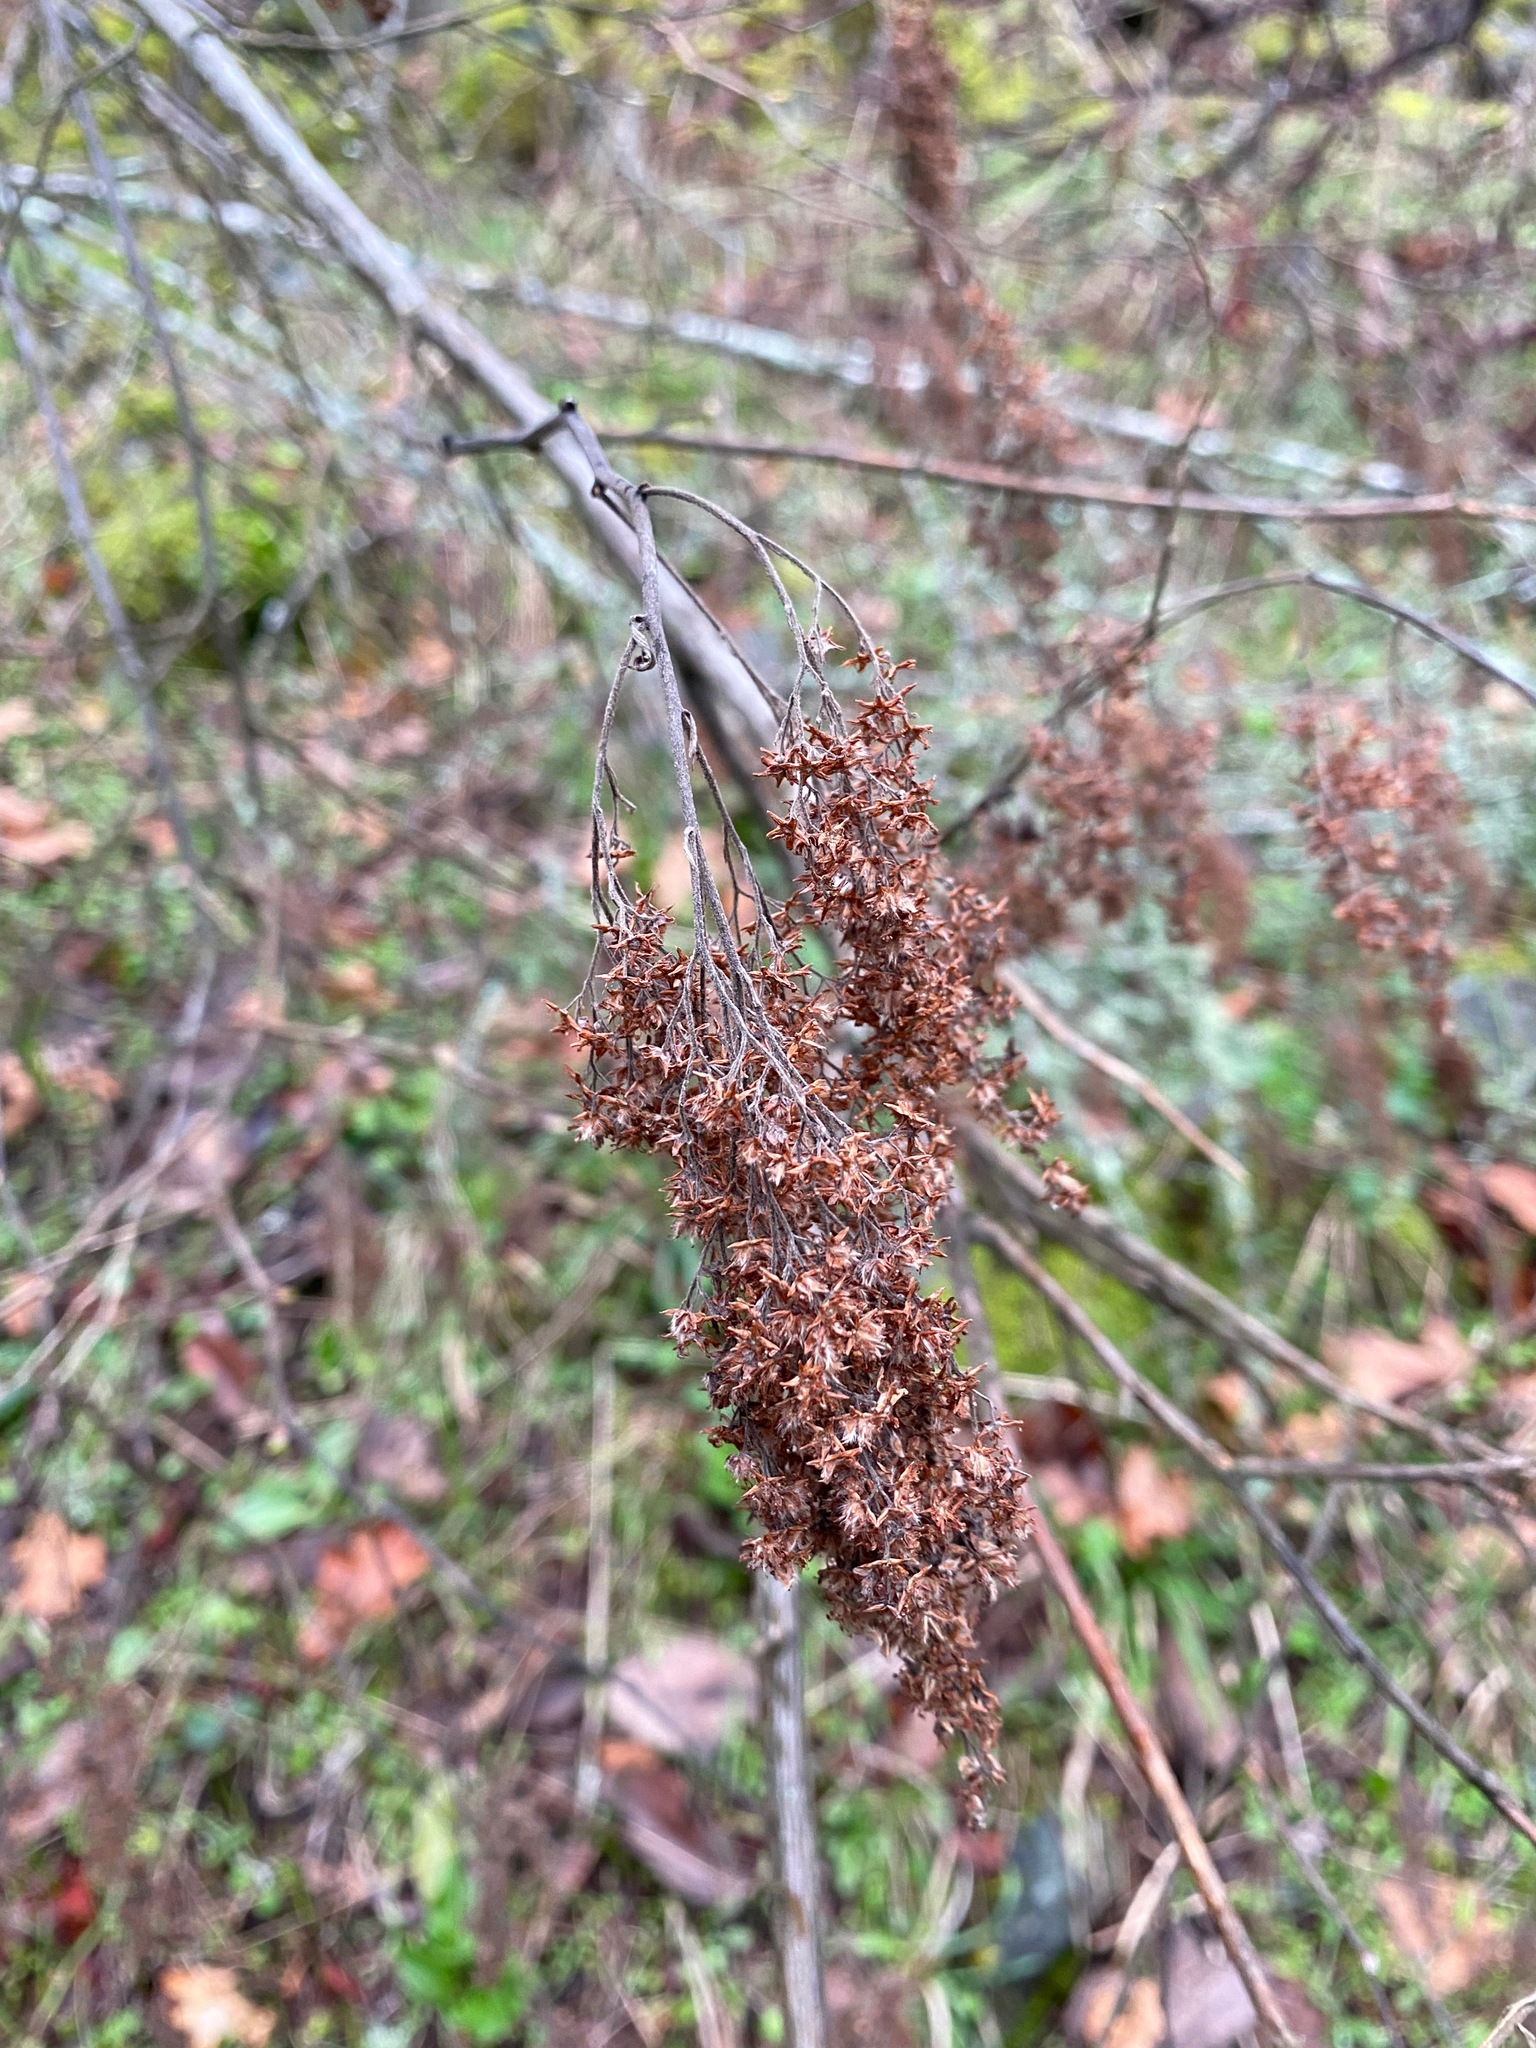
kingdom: Plantae
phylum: Tracheophyta
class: Magnoliopsida
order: Rosales
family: Rosaceae
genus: Holodiscus
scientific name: Holodiscus discolor
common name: Oceanspray
